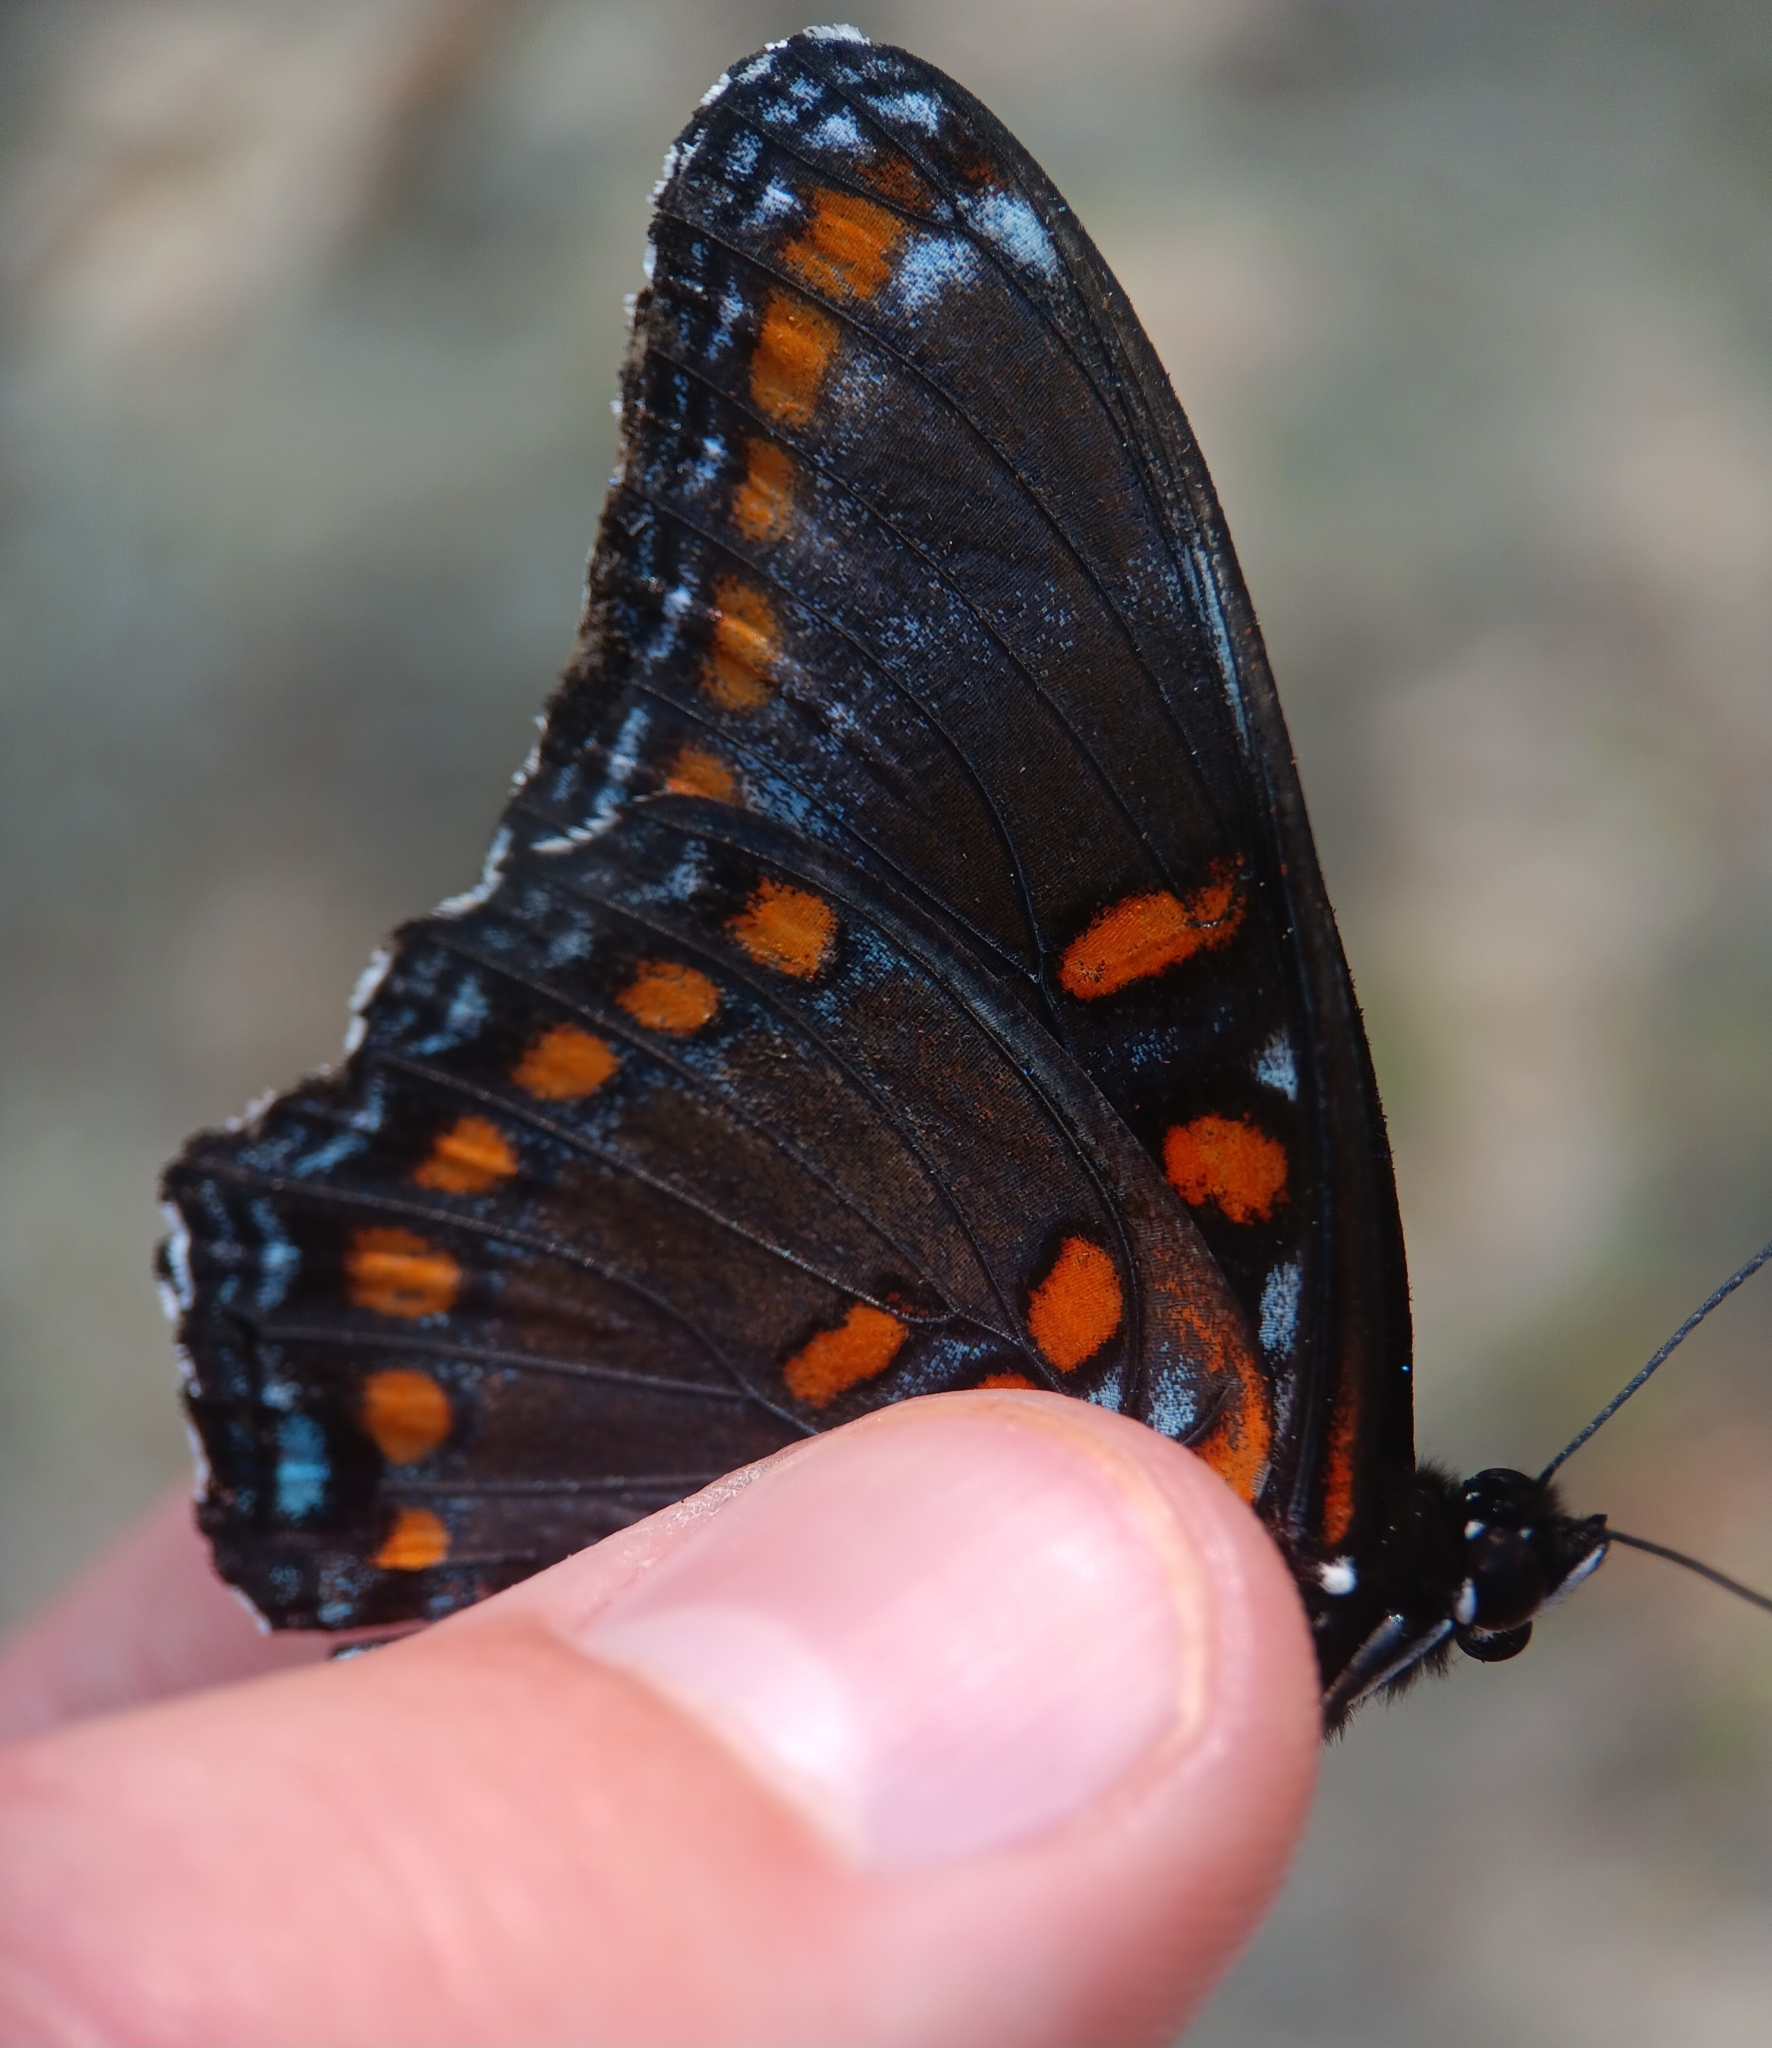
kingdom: Animalia
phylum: Arthropoda
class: Insecta
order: Lepidoptera
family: Nymphalidae
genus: Limenitis
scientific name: Limenitis astyanax
